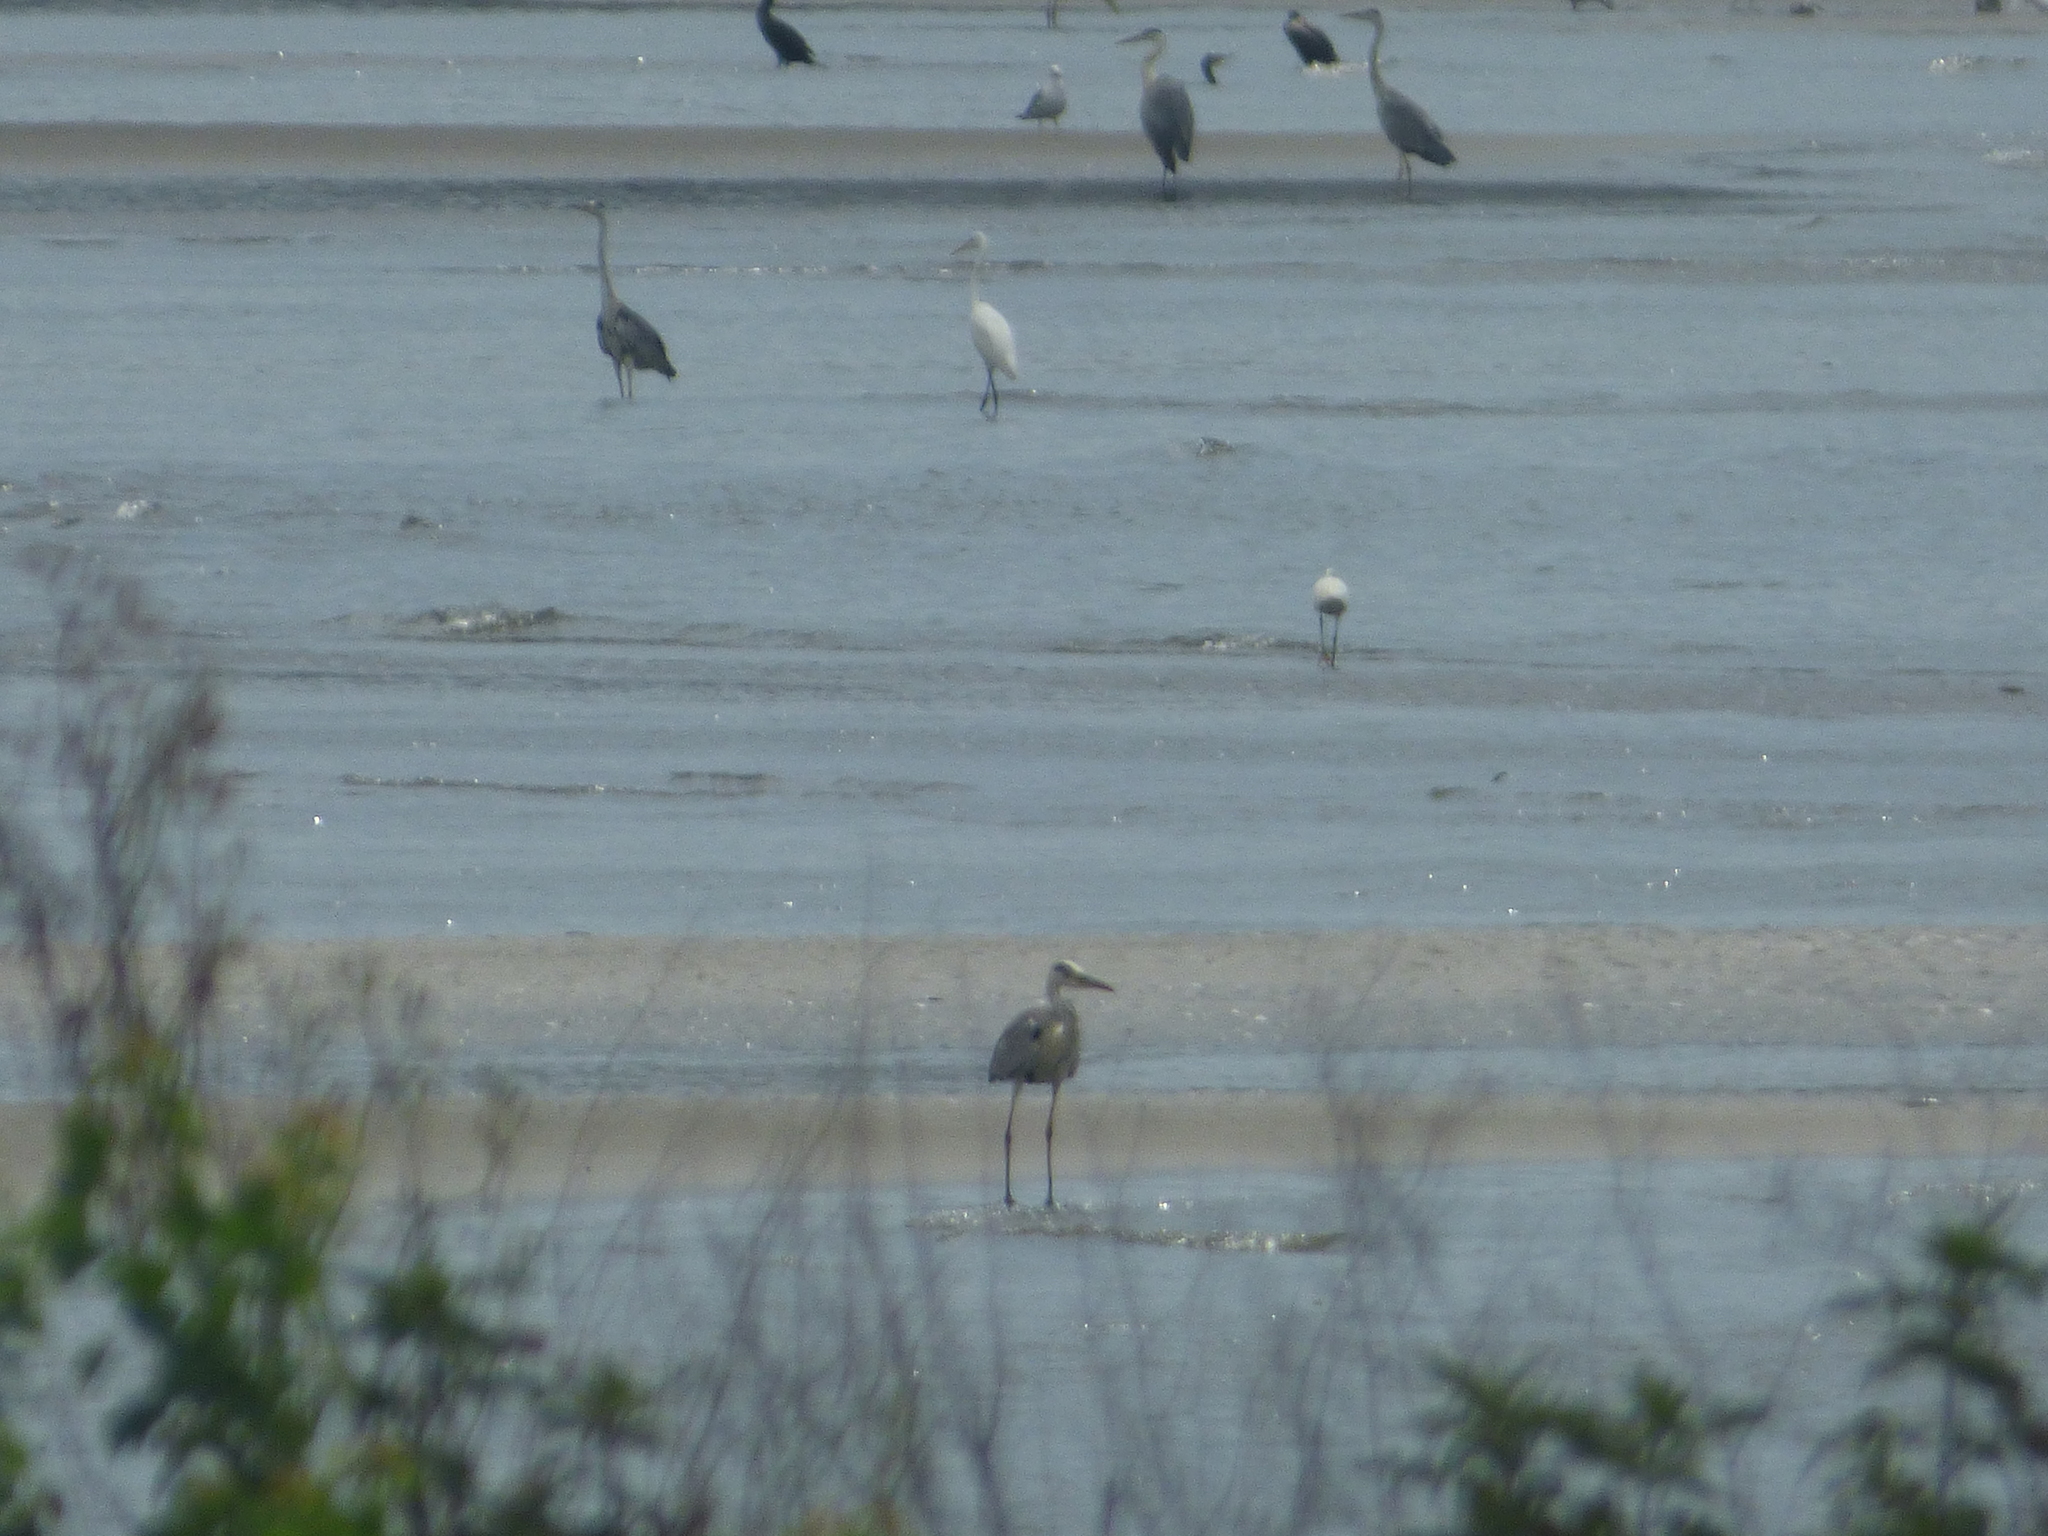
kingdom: Animalia
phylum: Chordata
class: Aves
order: Pelecaniformes
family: Ardeidae
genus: Ardea
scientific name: Ardea cinerea
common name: Grey heron
